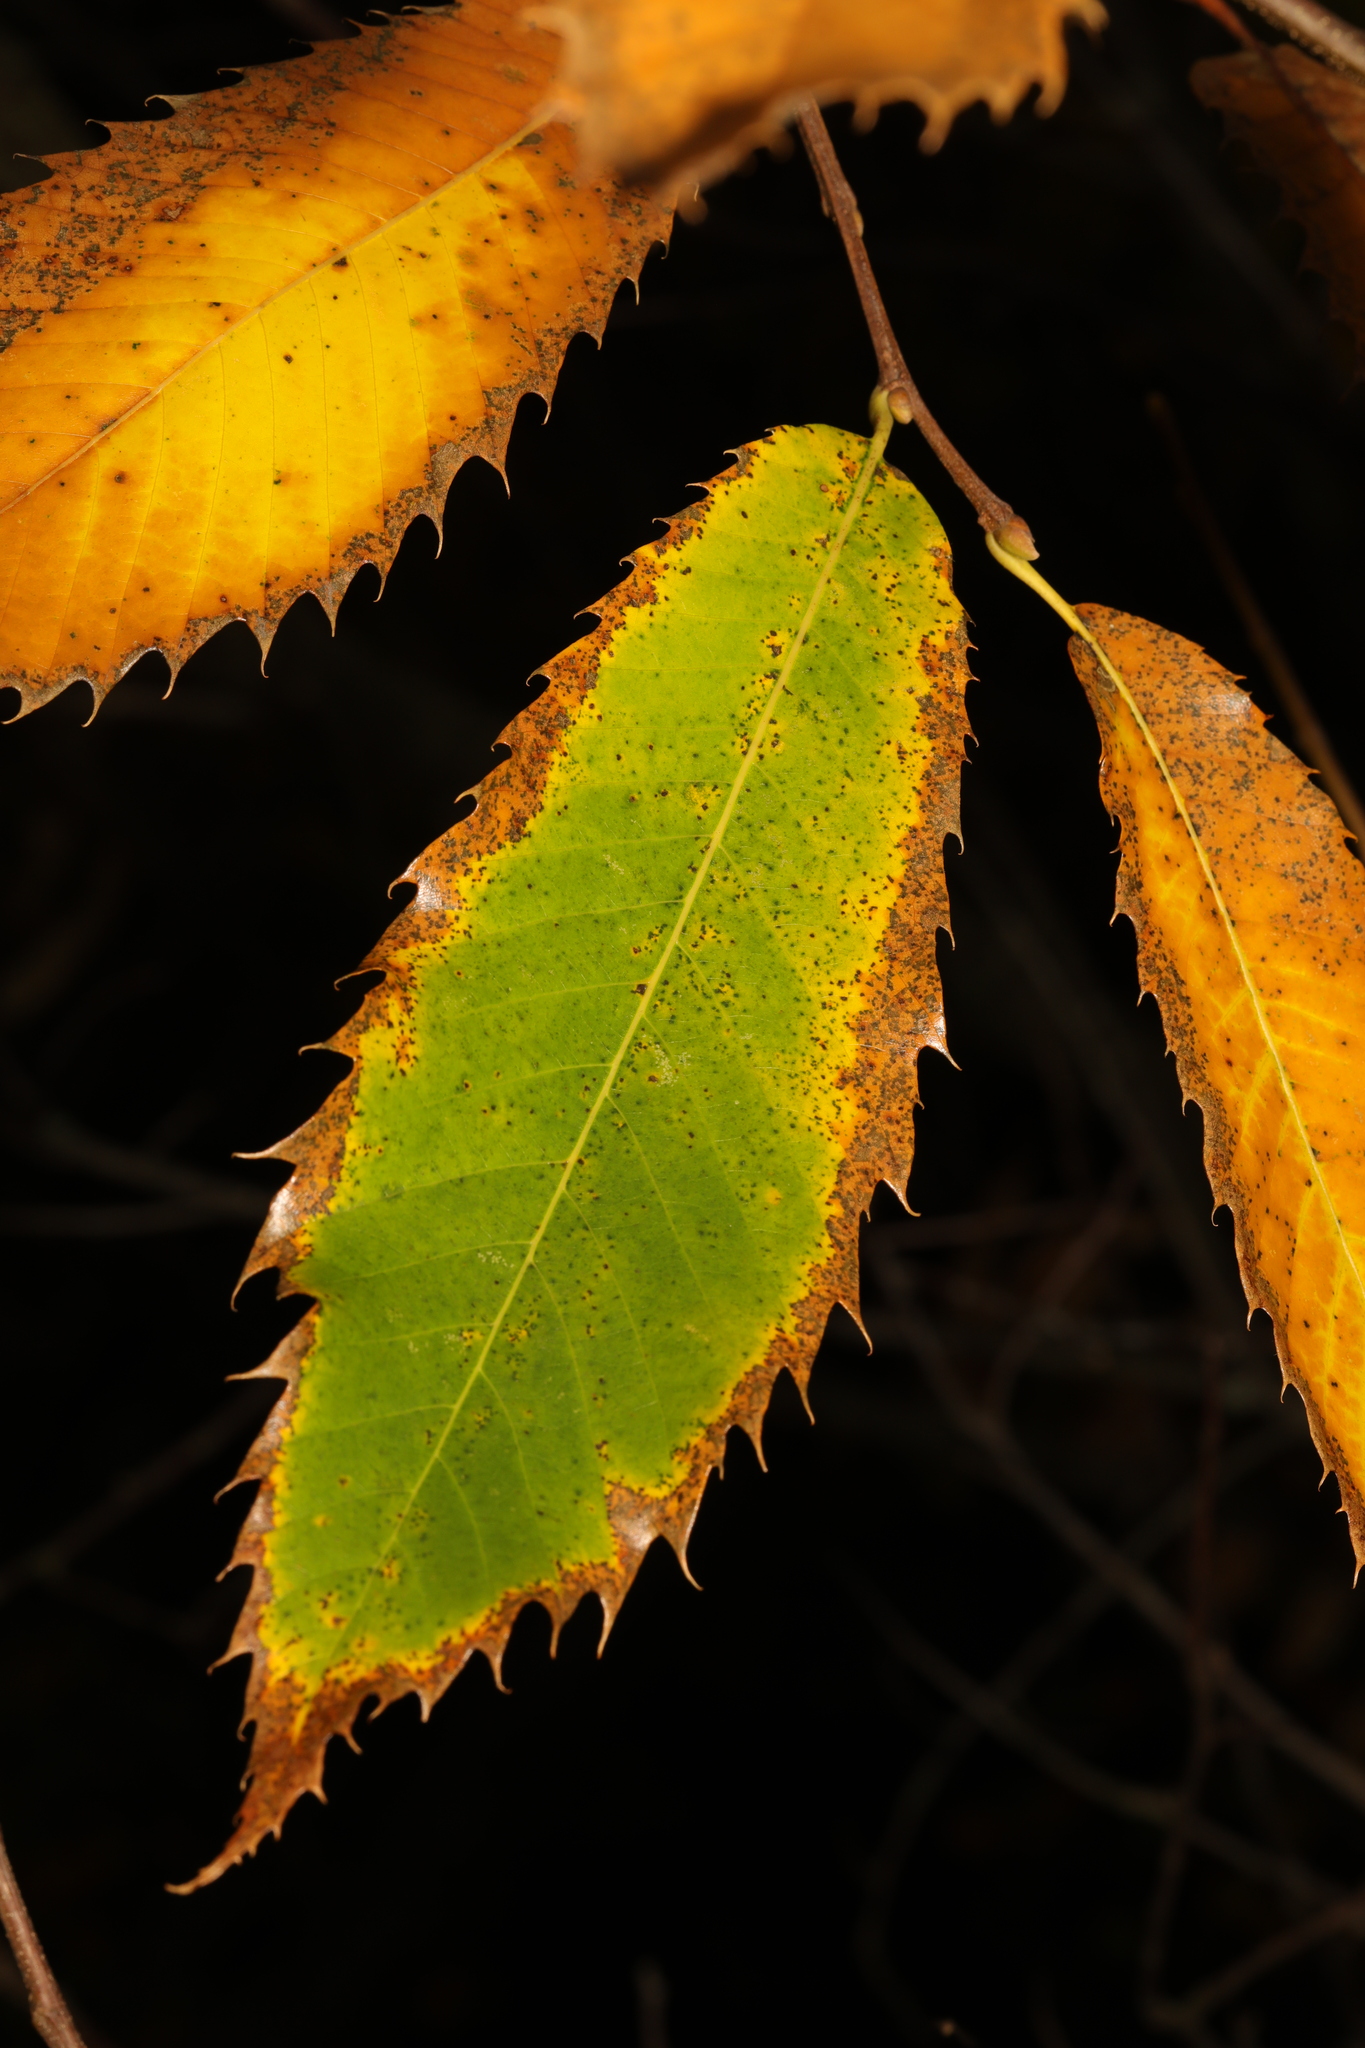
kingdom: Plantae
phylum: Tracheophyta
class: Magnoliopsida
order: Fagales
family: Fagaceae
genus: Castanea
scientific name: Castanea sativa
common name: Sweet chestnut
